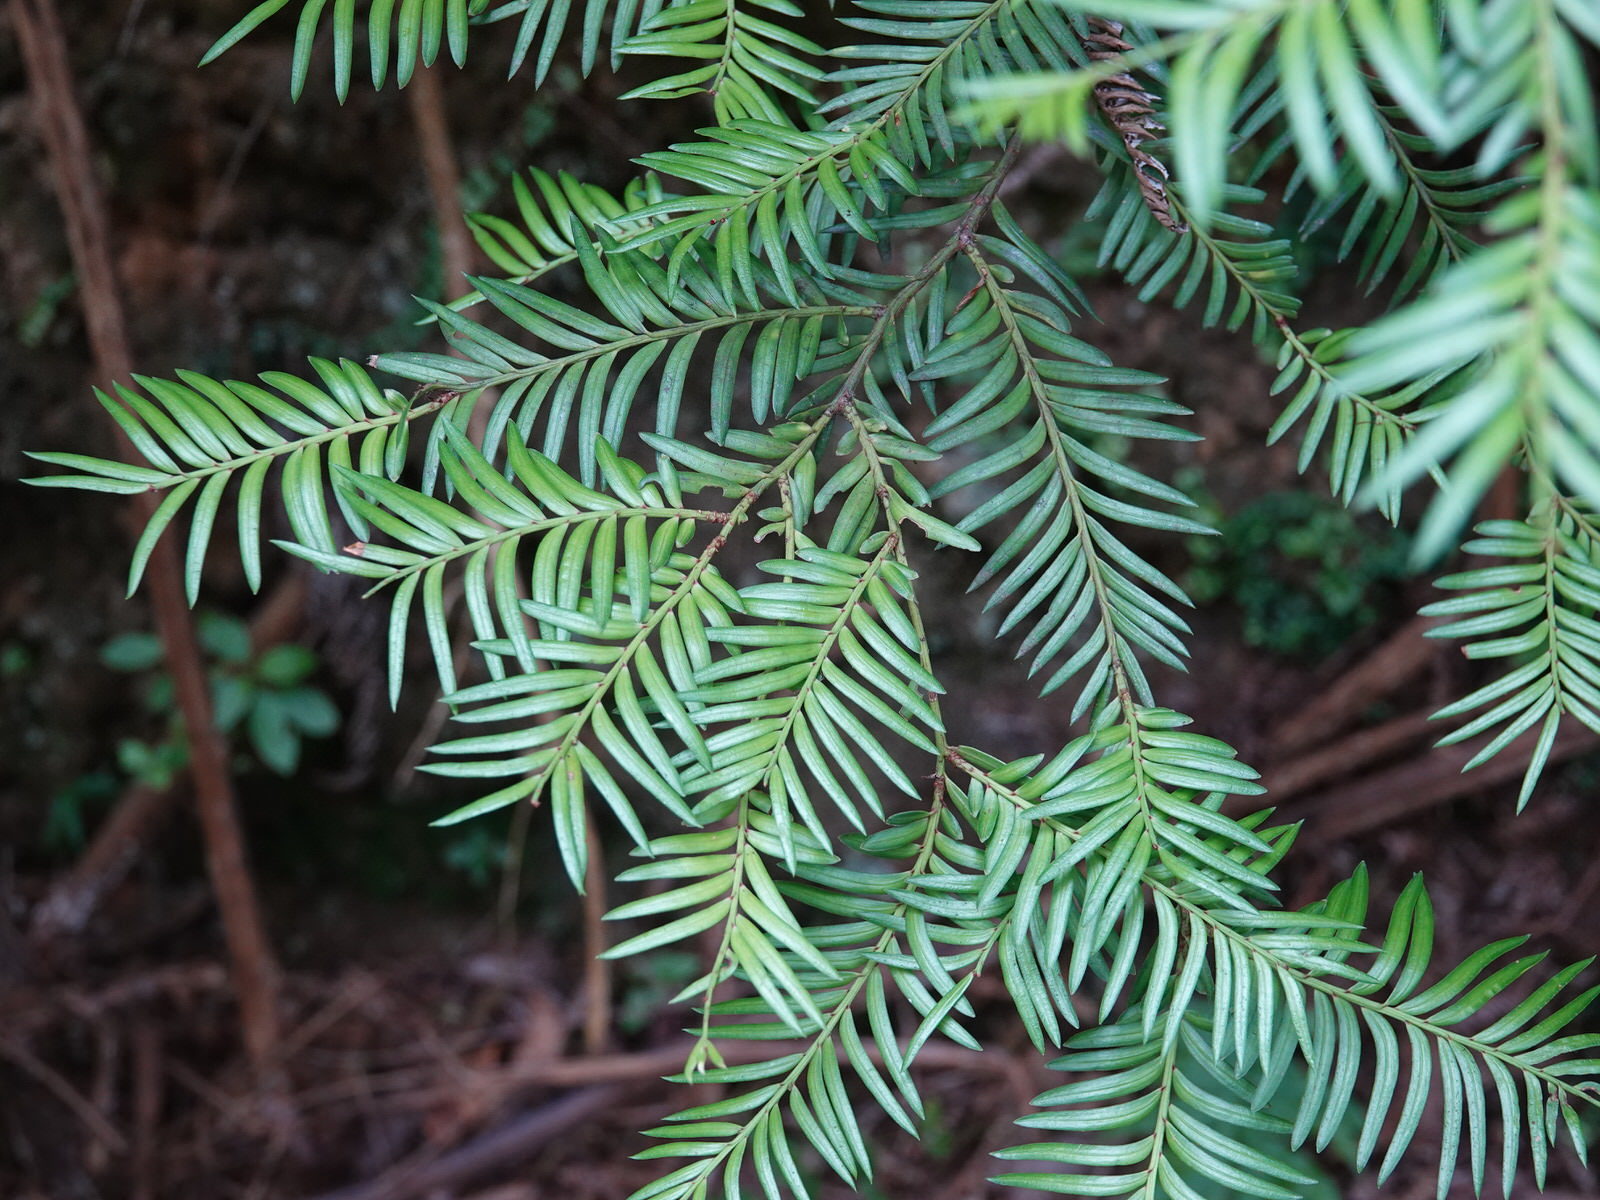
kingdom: Plantae
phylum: Tracheophyta
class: Pinopsida
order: Pinales
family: Podocarpaceae
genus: Prumnopitys
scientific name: Prumnopitys ferruginea
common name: Brown pine
